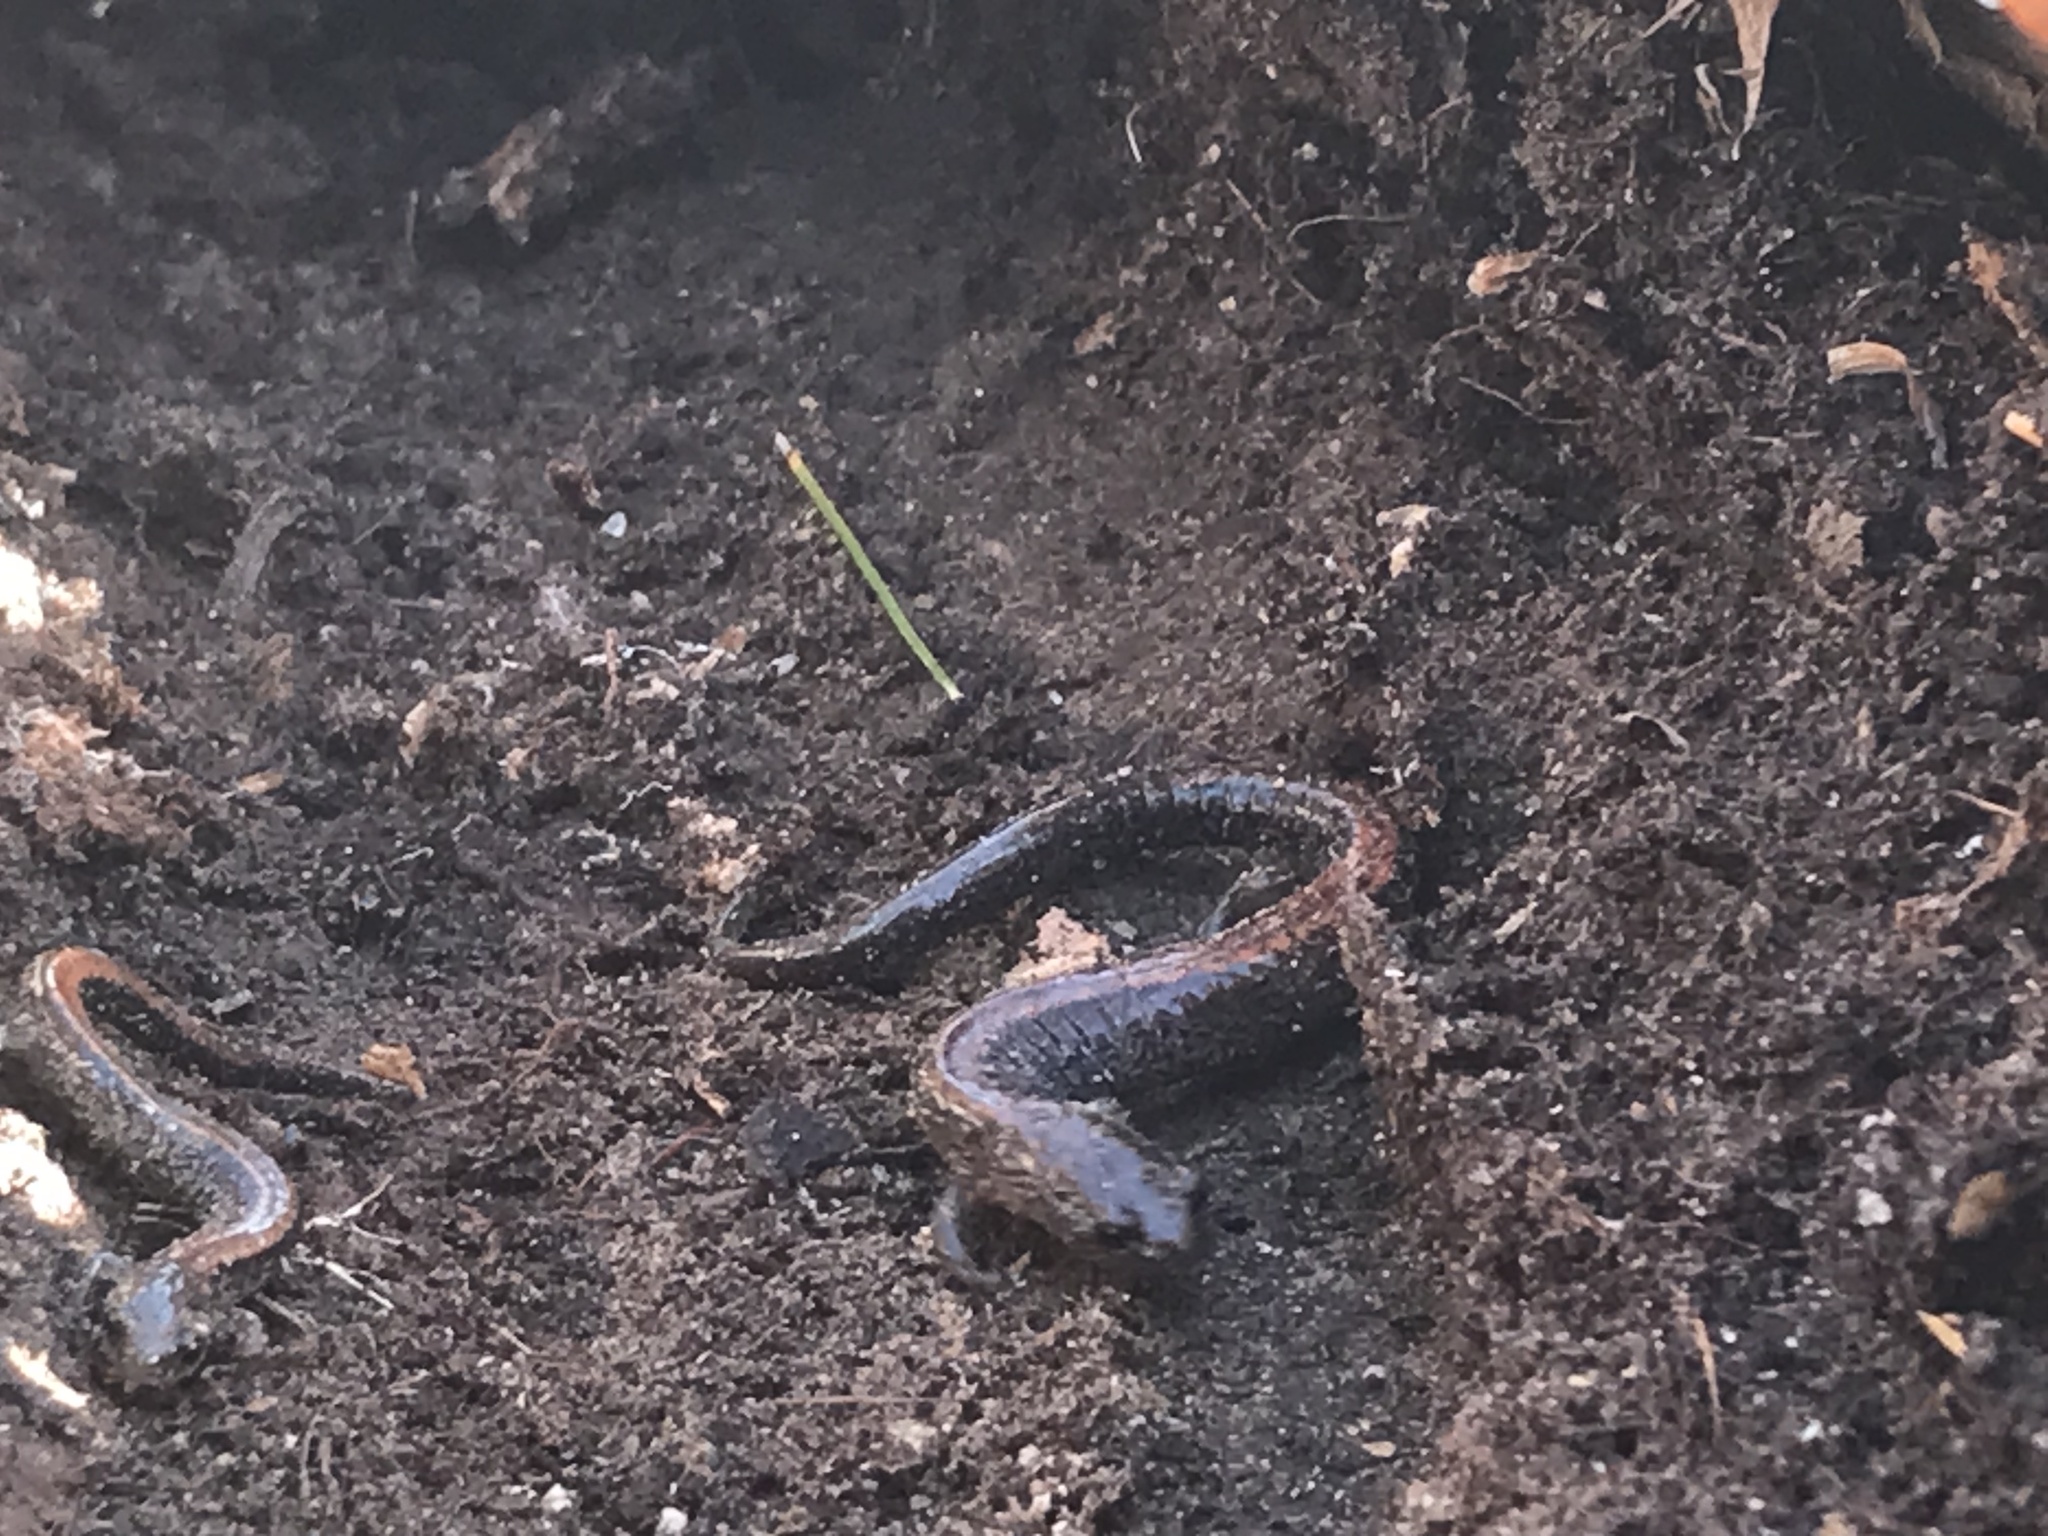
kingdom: Animalia
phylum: Chordata
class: Amphibia
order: Caudata
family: Plethodontidae
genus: Plethodon
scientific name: Plethodon cinereus
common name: Redback salamander
